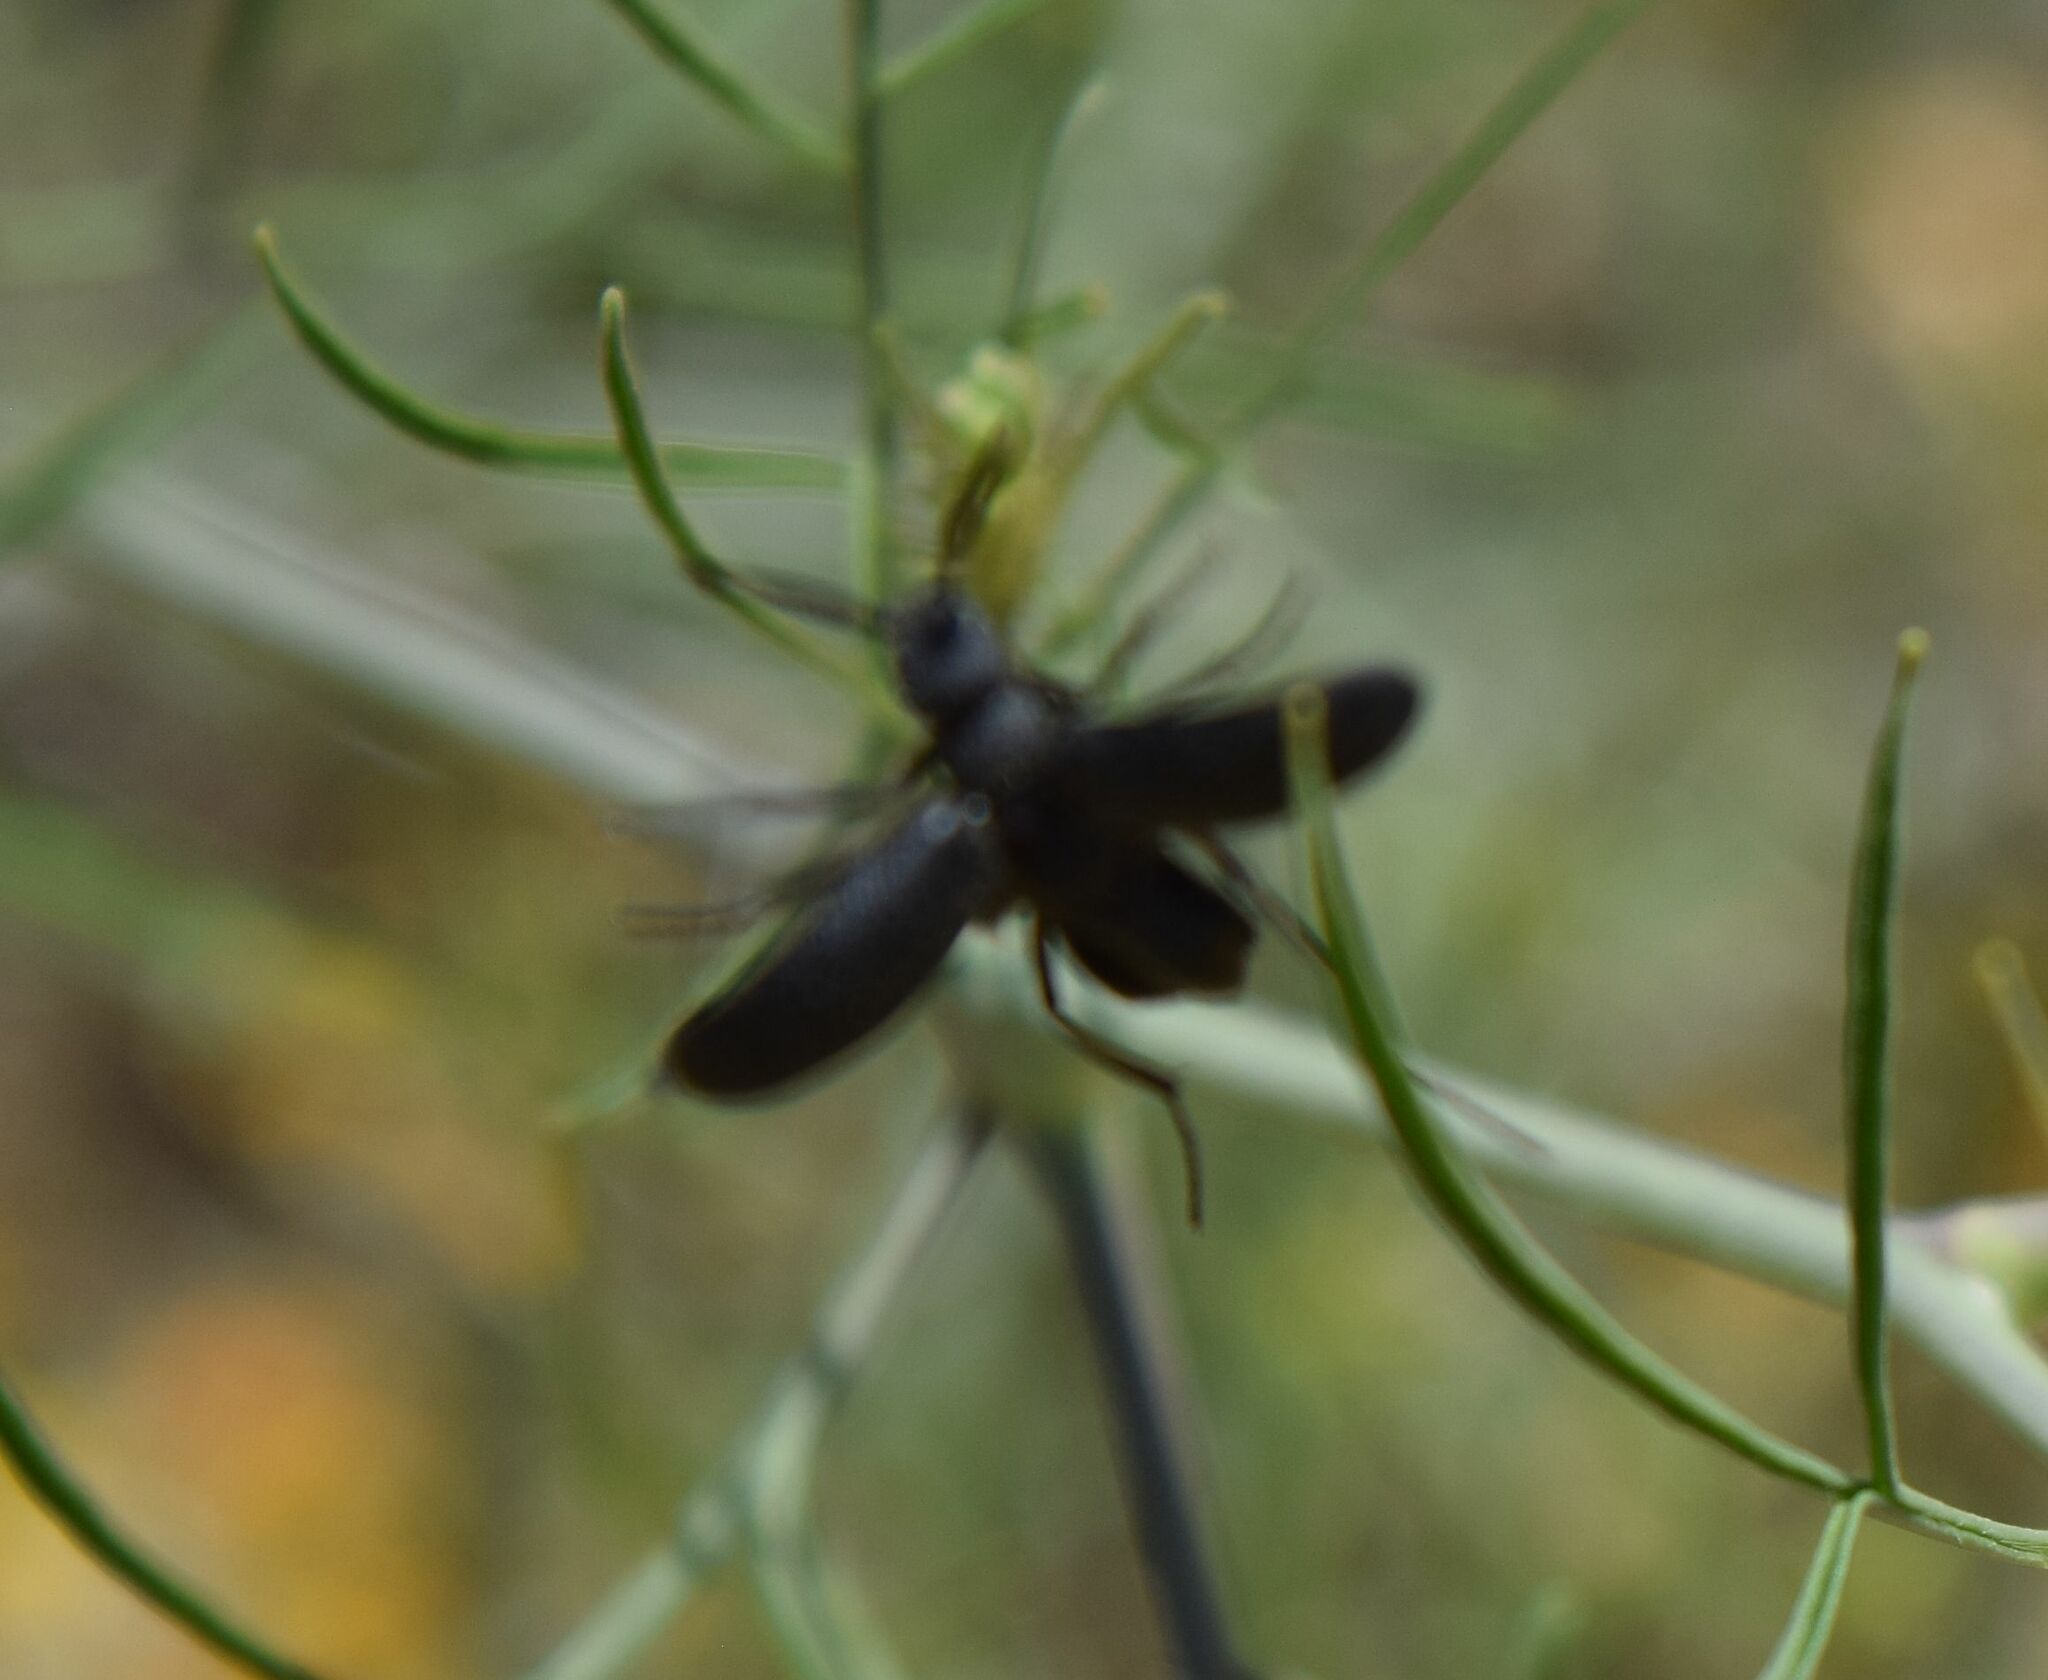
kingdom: Animalia
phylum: Arthropoda
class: Insecta
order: Coleoptera
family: Meloidae
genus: Cordylospasta
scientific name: Cordylospasta opaca
